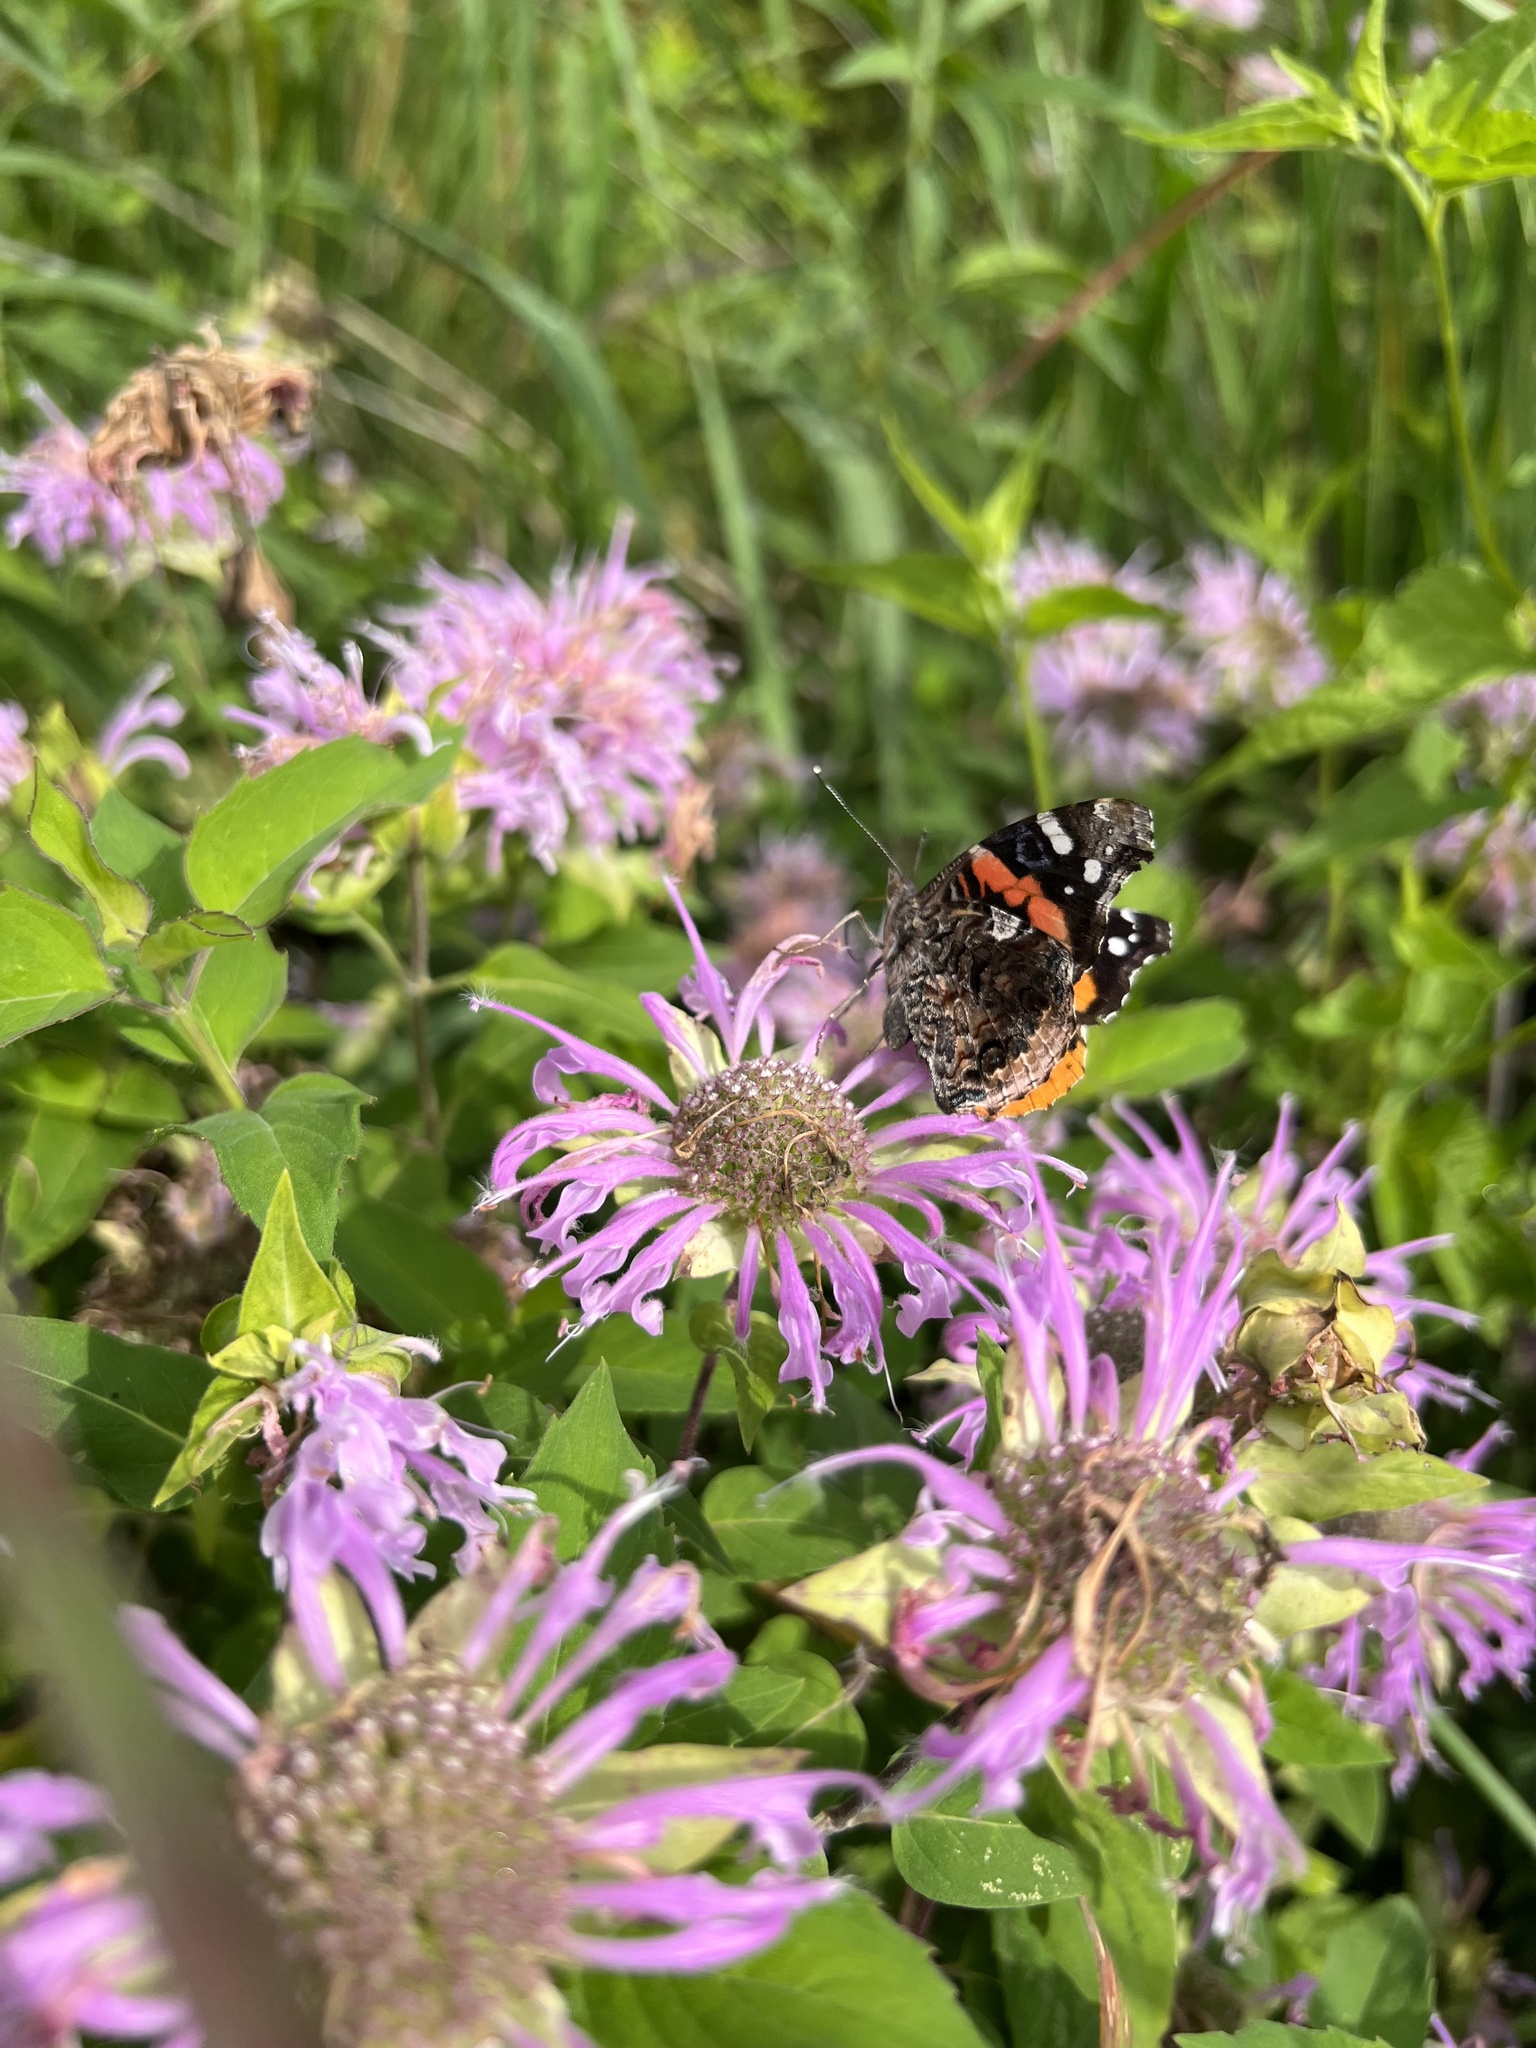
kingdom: Animalia
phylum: Arthropoda
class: Insecta
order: Lepidoptera
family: Nymphalidae
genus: Vanessa
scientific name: Vanessa atalanta
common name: Red admiral
